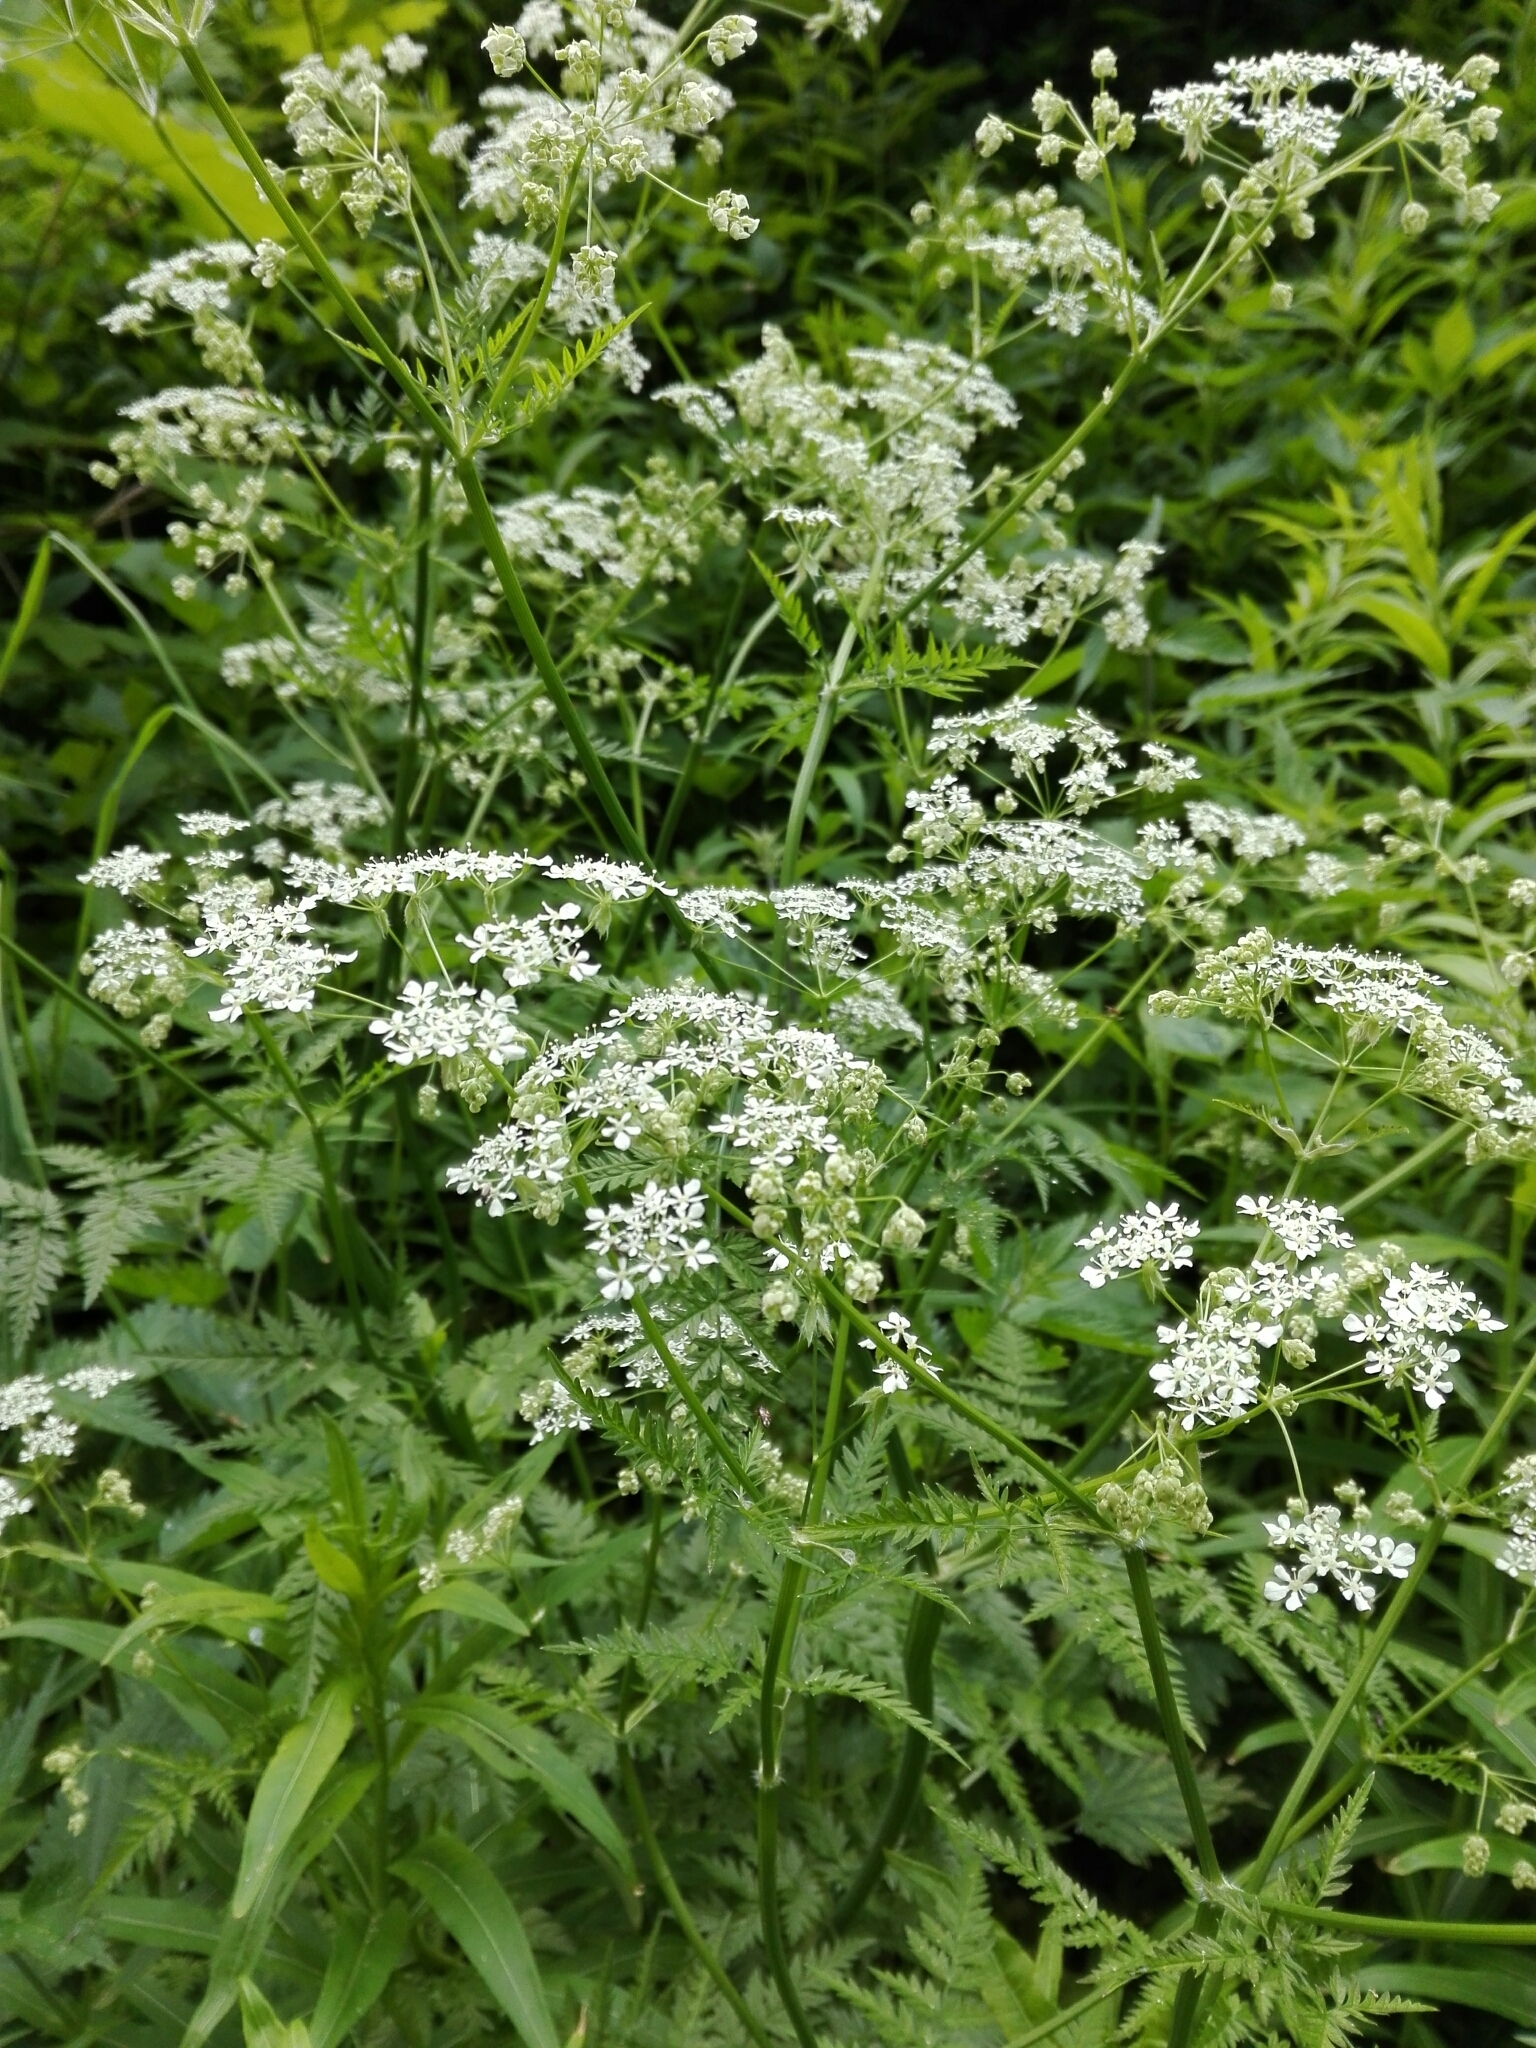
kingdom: Plantae
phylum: Tracheophyta
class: Magnoliopsida
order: Apiales
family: Apiaceae
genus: Anthriscus
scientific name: Anthriscus sylvestris
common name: Cow parsley
